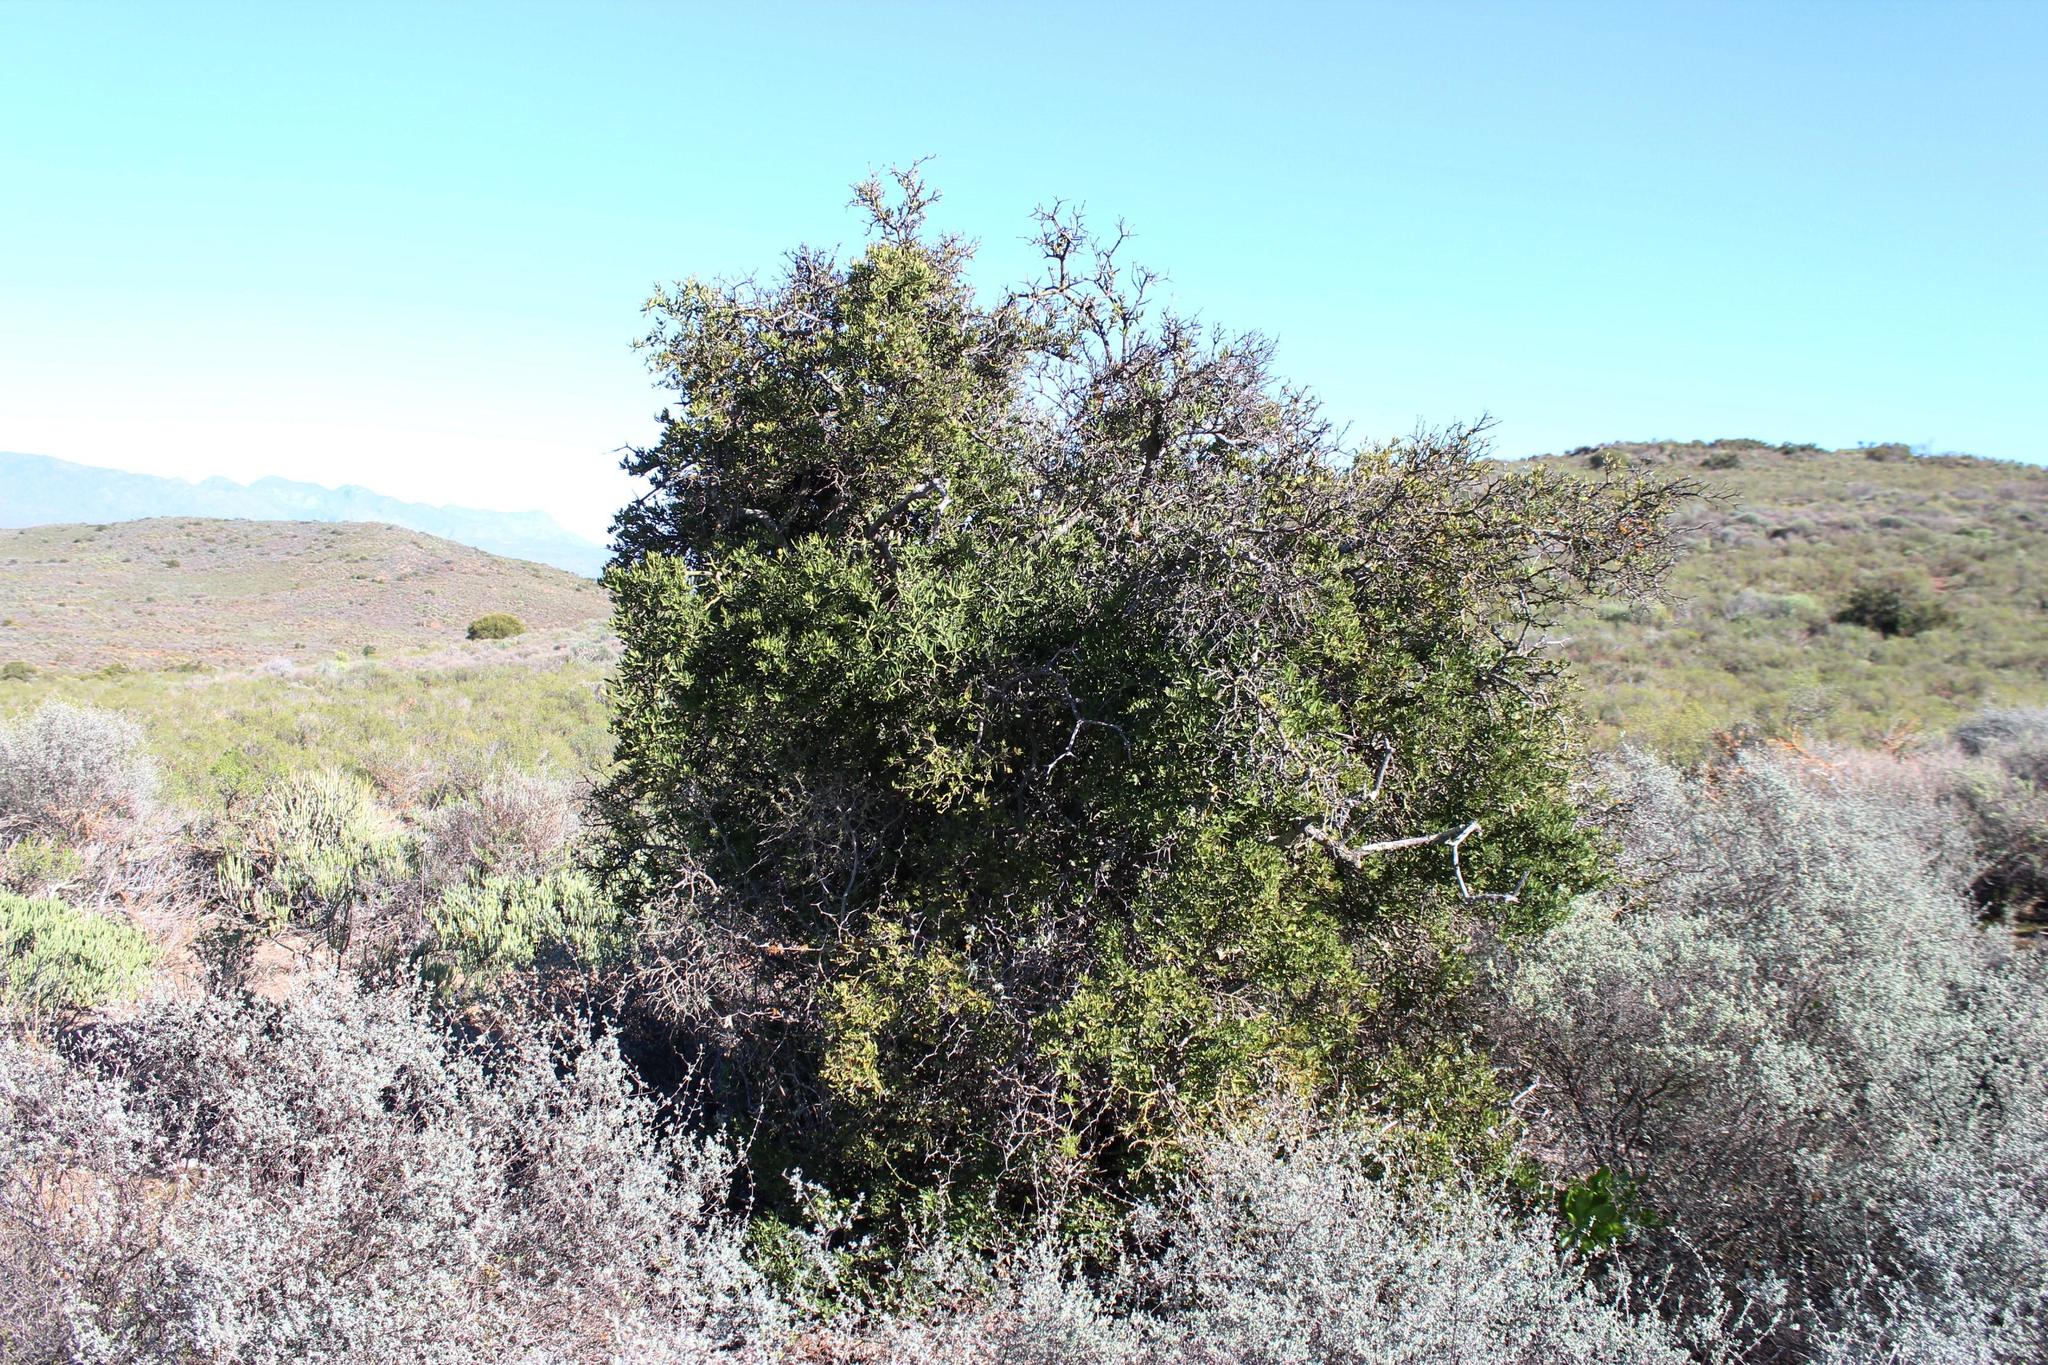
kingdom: Plantae
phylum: Tracheophyta
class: Magnoliopsida
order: Gentianales
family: Apocynaceae
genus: Carissa
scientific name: Carissa haematocarpa
